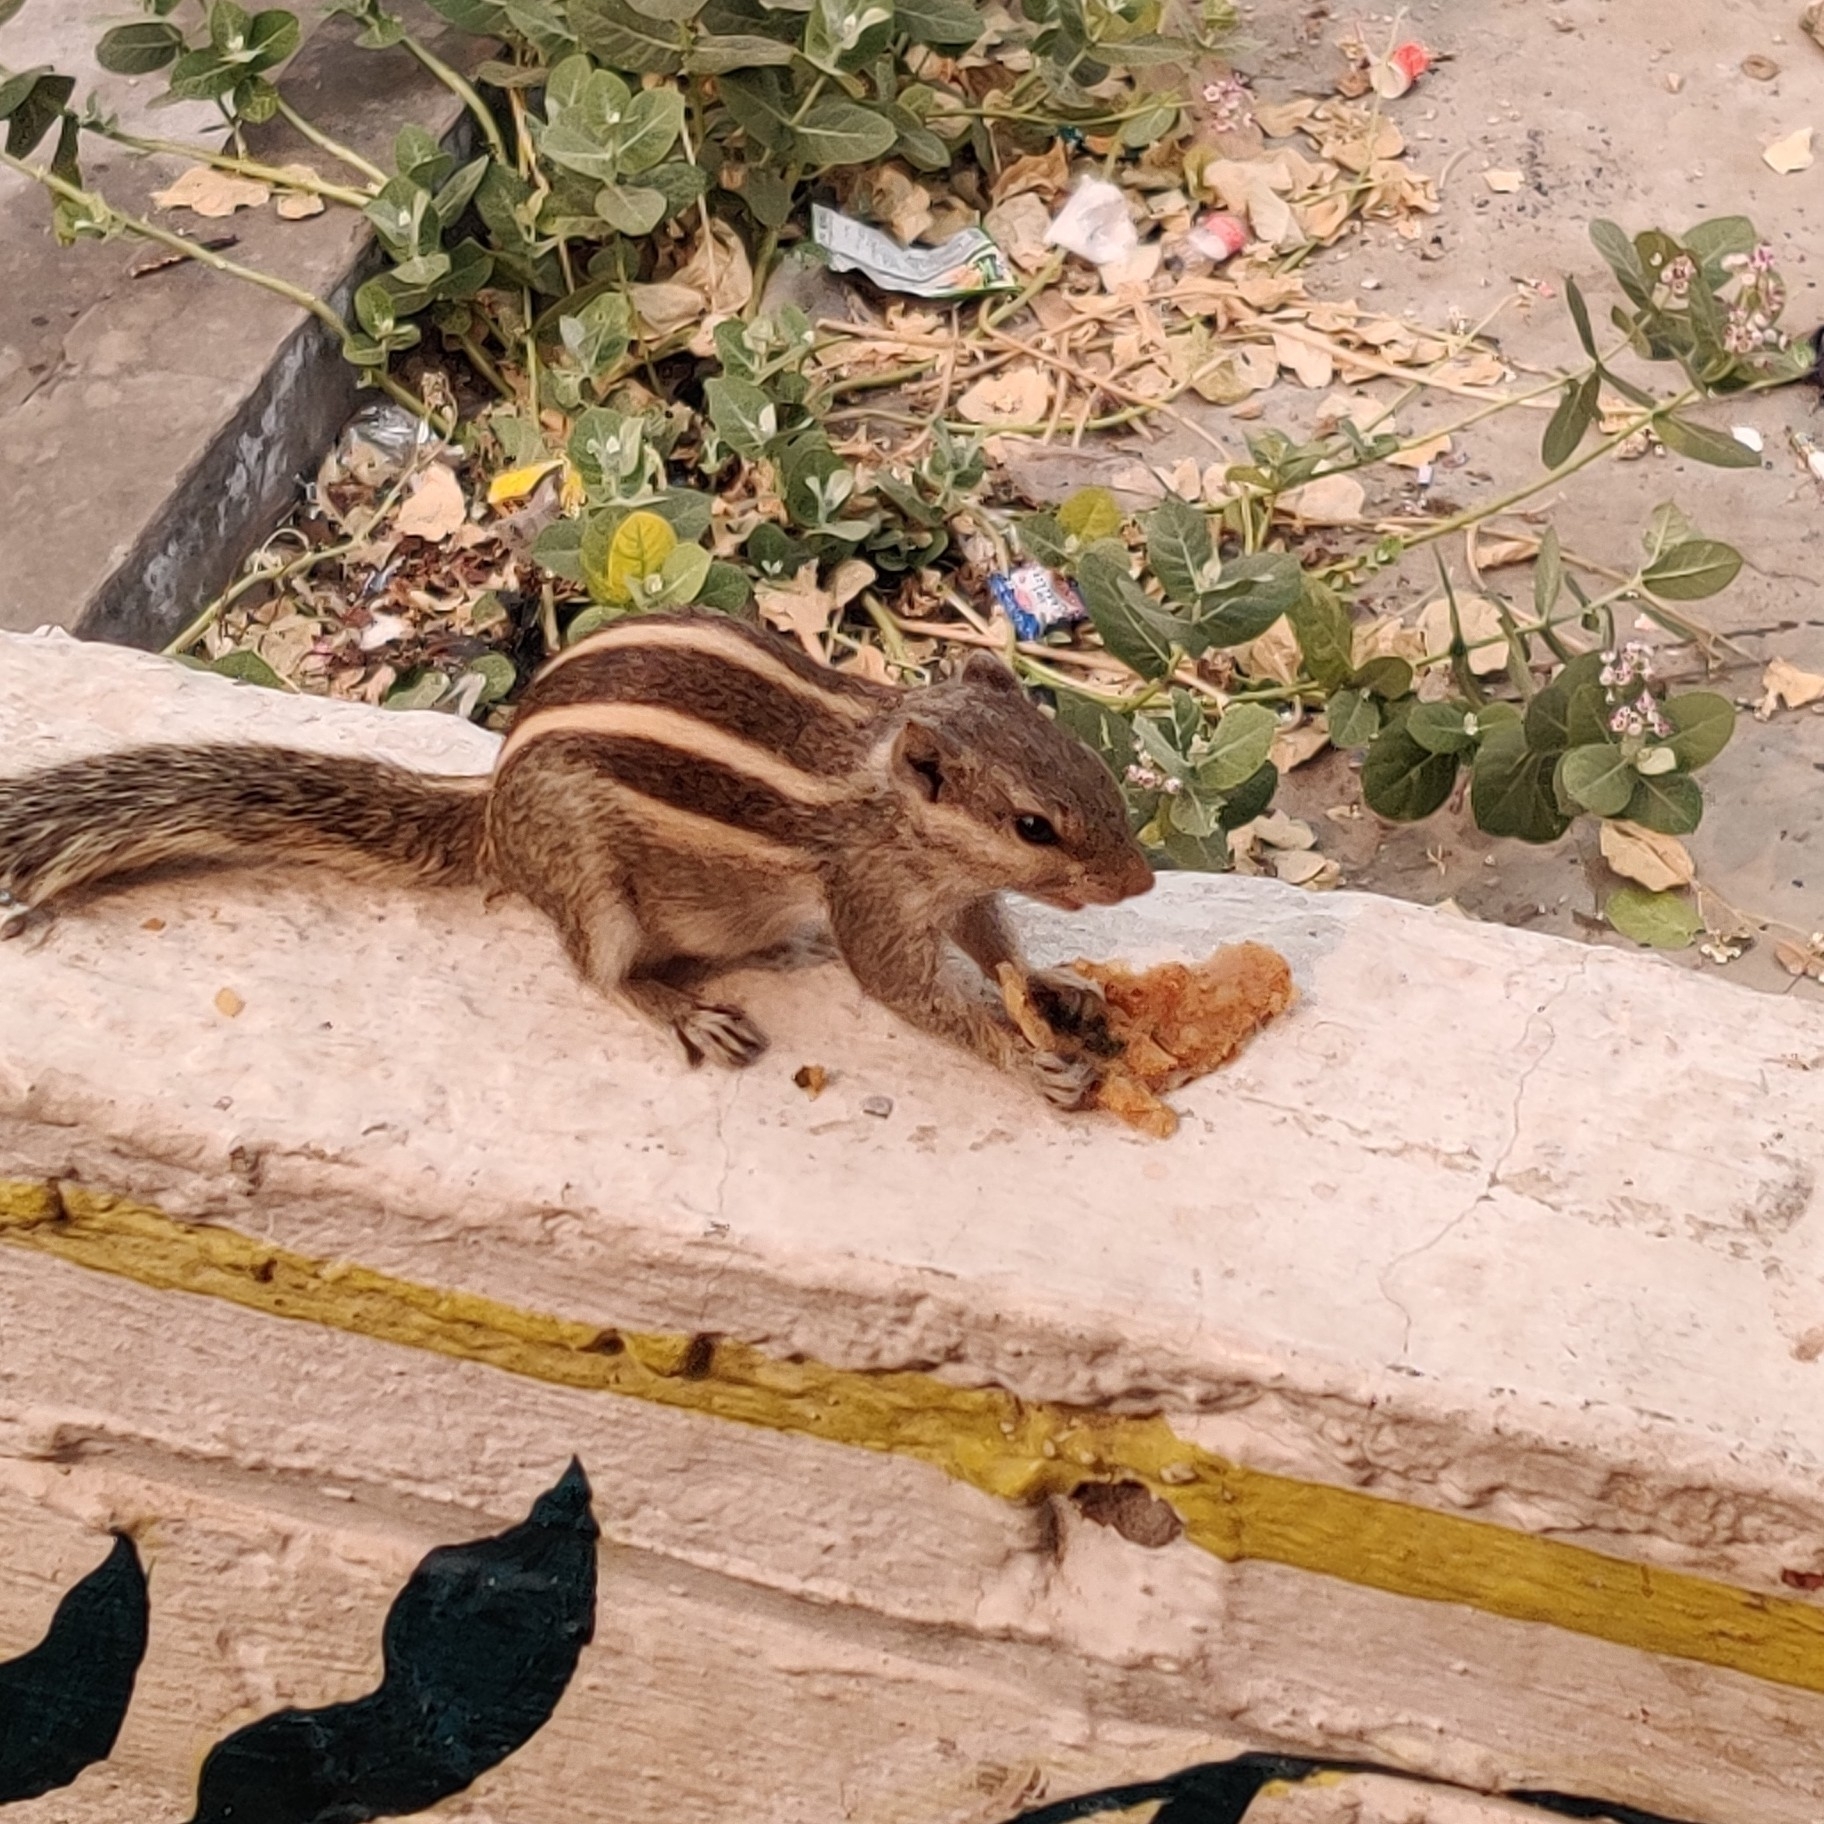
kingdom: Animalia
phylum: Chordata
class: Mammalia
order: Rodentia
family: Sciuridae
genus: Funambulus
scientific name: Funambulus pennantii
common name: Northern palm squirrel
